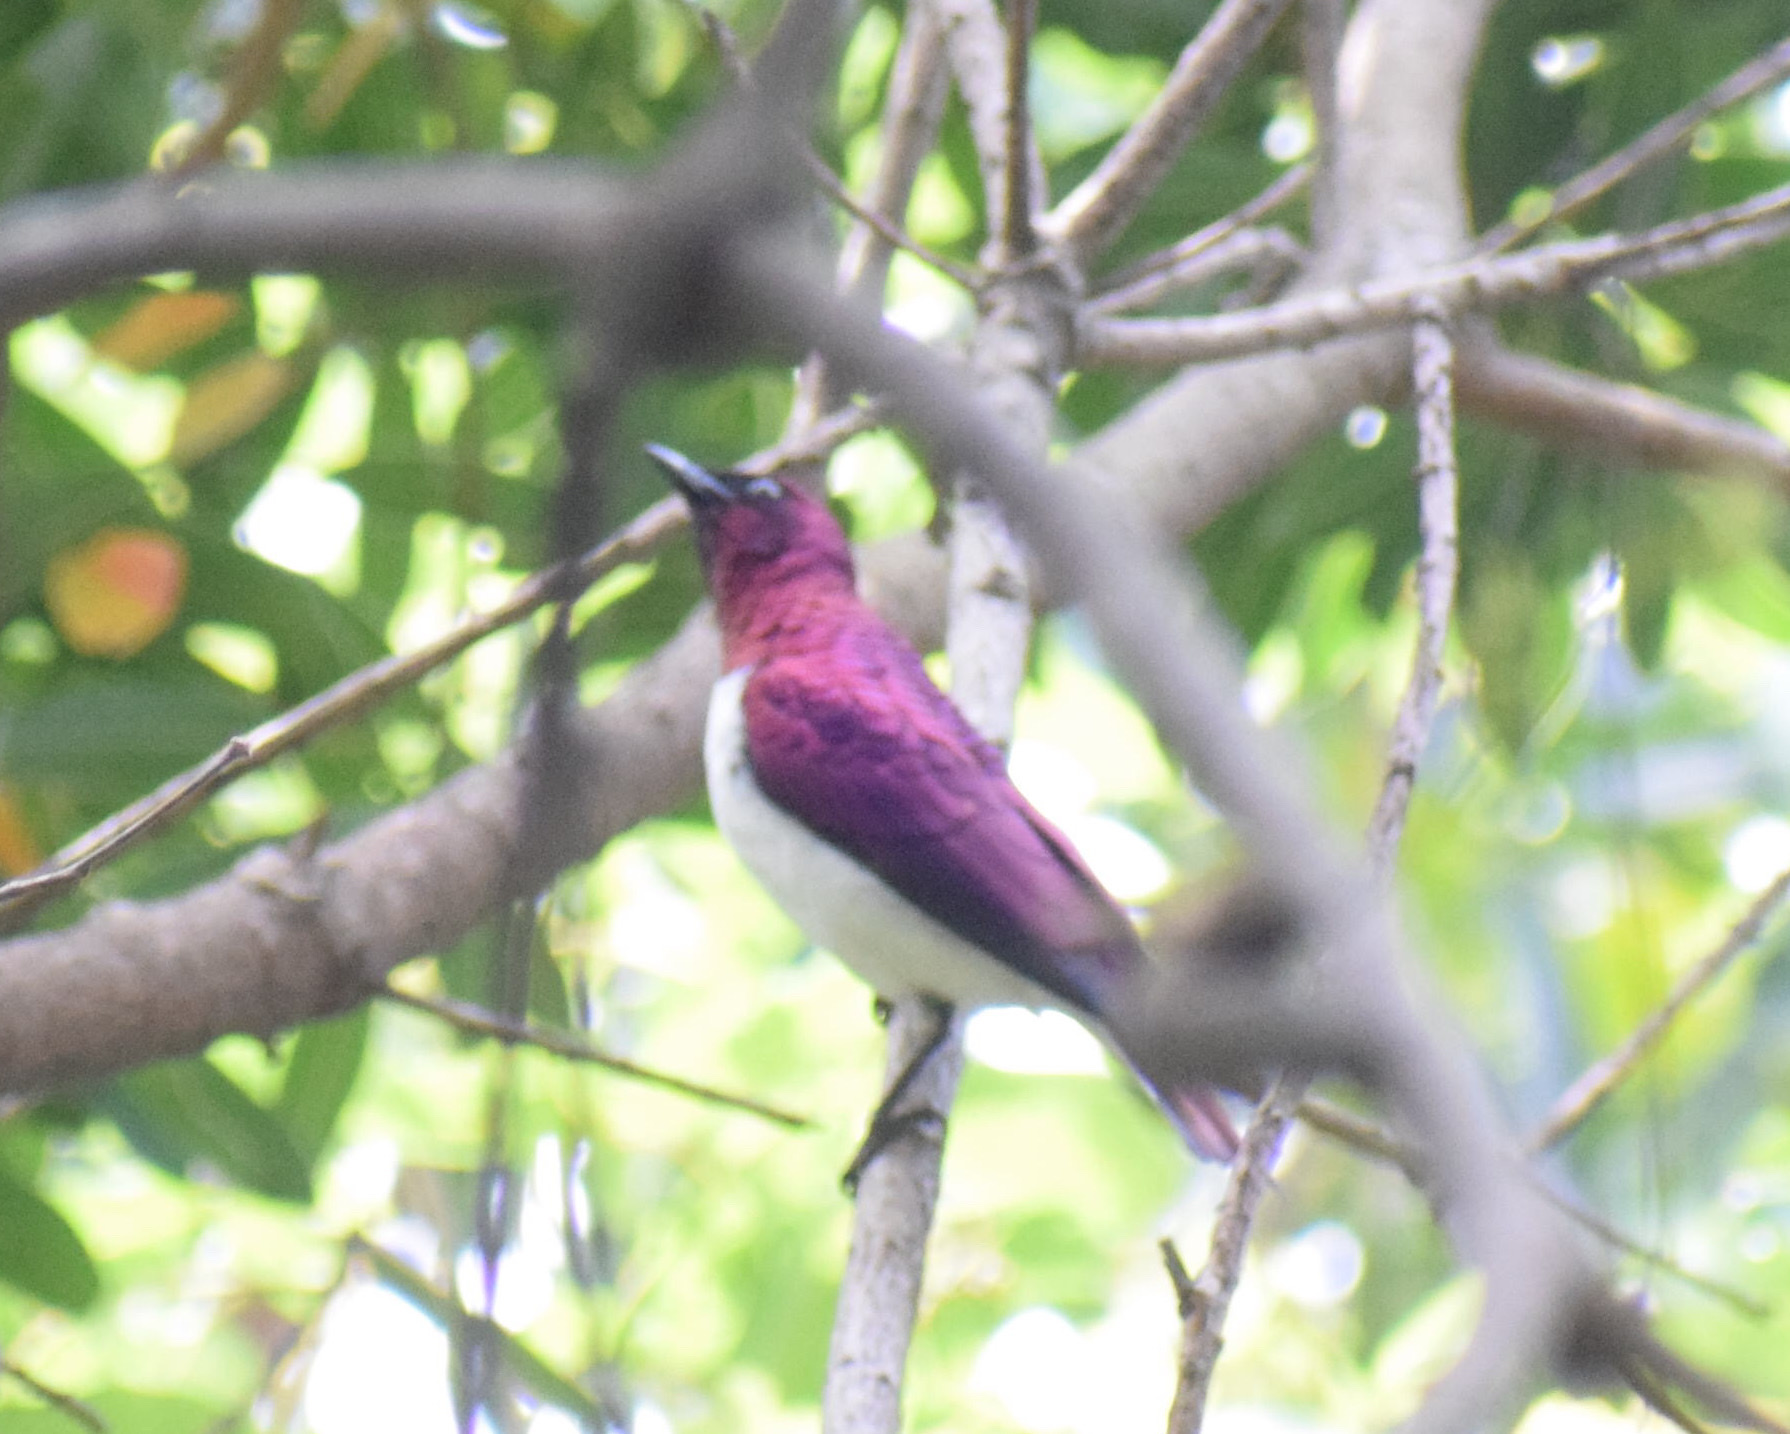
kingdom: Animalia
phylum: Chordata
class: Aves
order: Passeriformes
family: Sturnidae
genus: Cinnyricinclus
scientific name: Cinnyricinclus leucogaster
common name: Violet-backed starling
